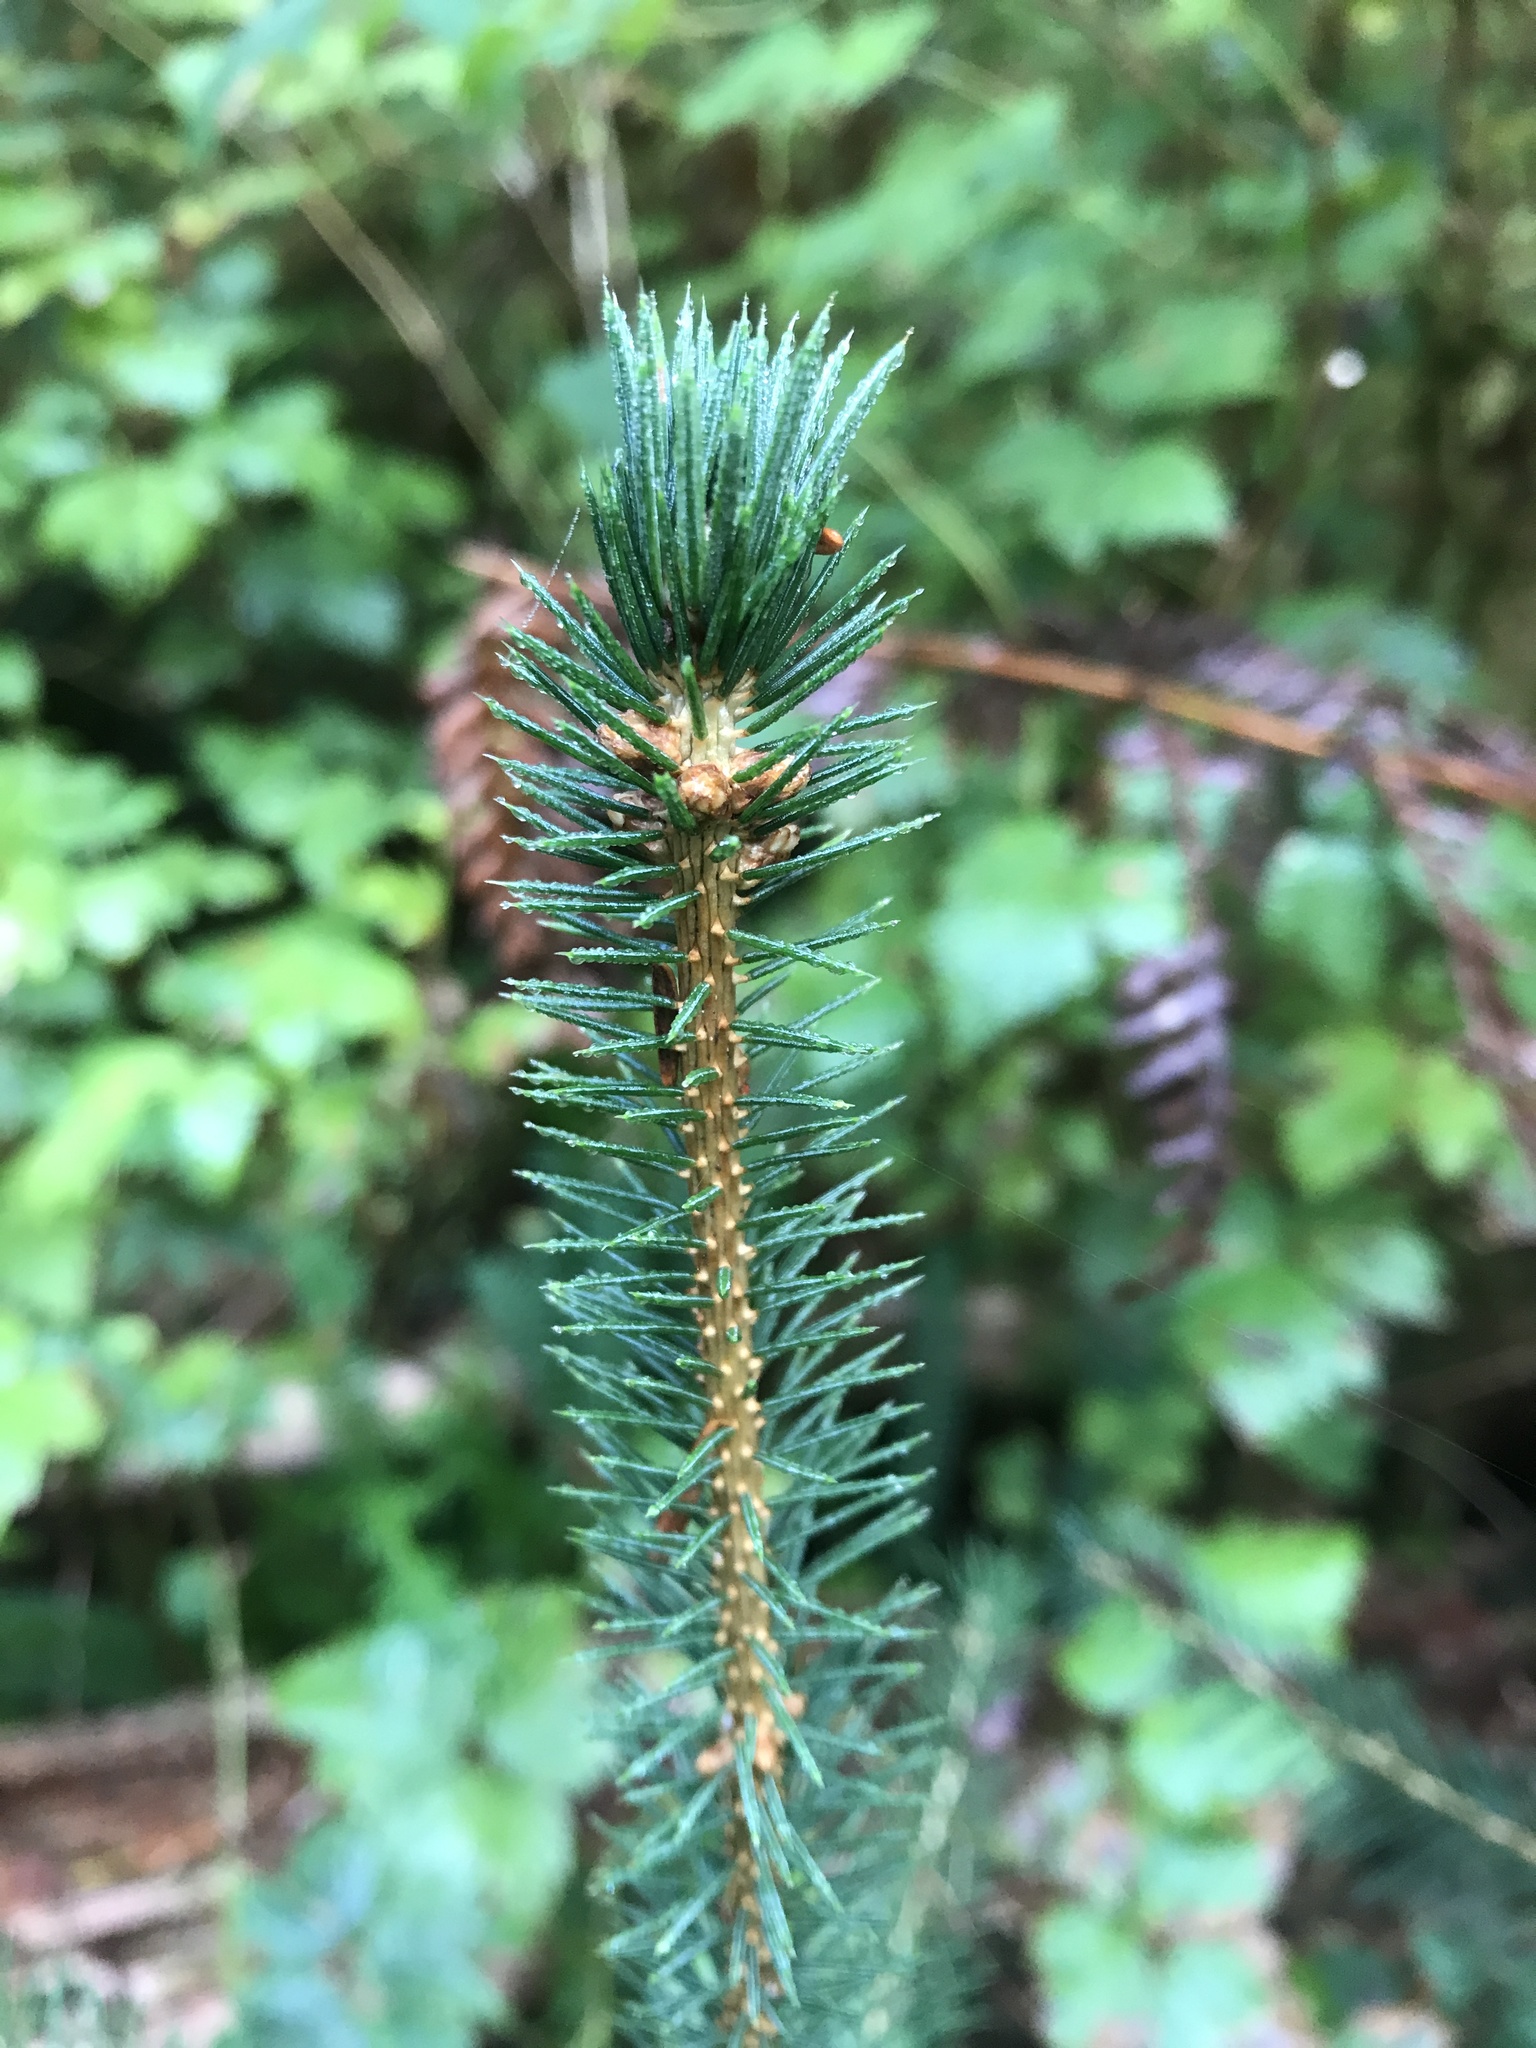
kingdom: Plantae
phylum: Tracheophyta
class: Pinopsida
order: Pinales
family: Pinaceae
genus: Picea
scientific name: Picea sitchensis
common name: Sitka spruce
